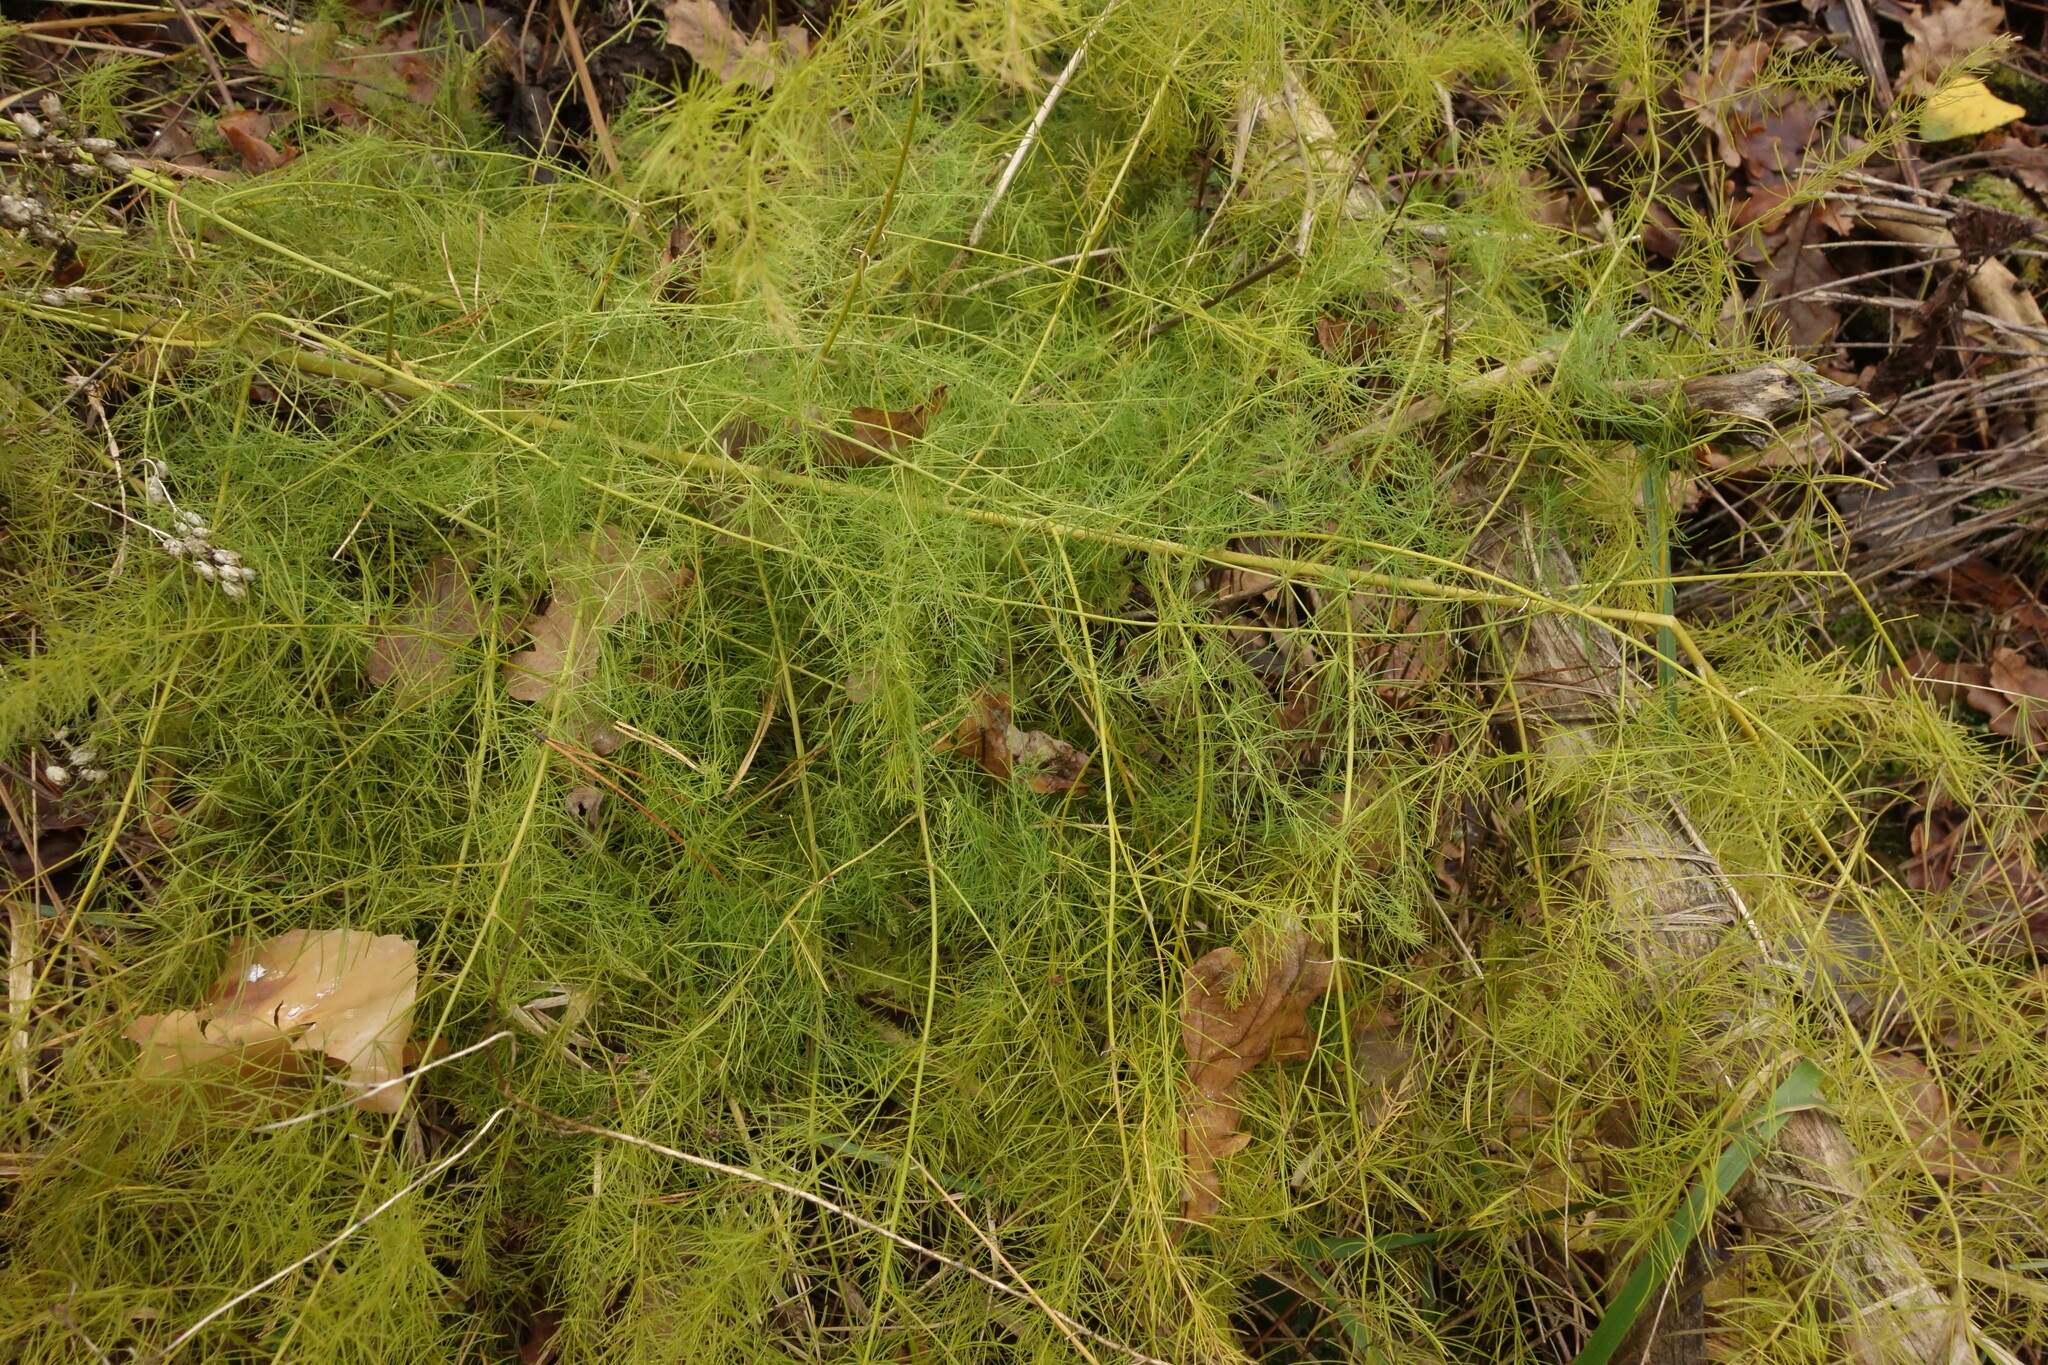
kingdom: Plantae
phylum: Tracheophyta
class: Liliopsida
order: Asparagales
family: Asparagaceae
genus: Asparagus
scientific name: Asparagus officinalis
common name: Garden asparagus
